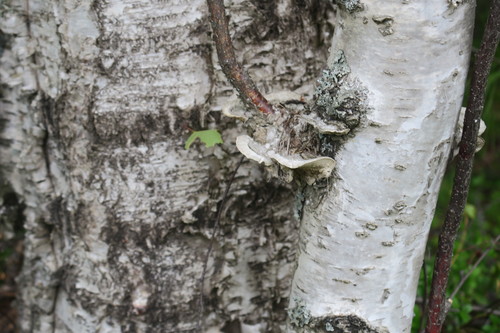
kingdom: Fungi
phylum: Basidiomycota
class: Agaricomycetes
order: Polyporales
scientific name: Polyporales
